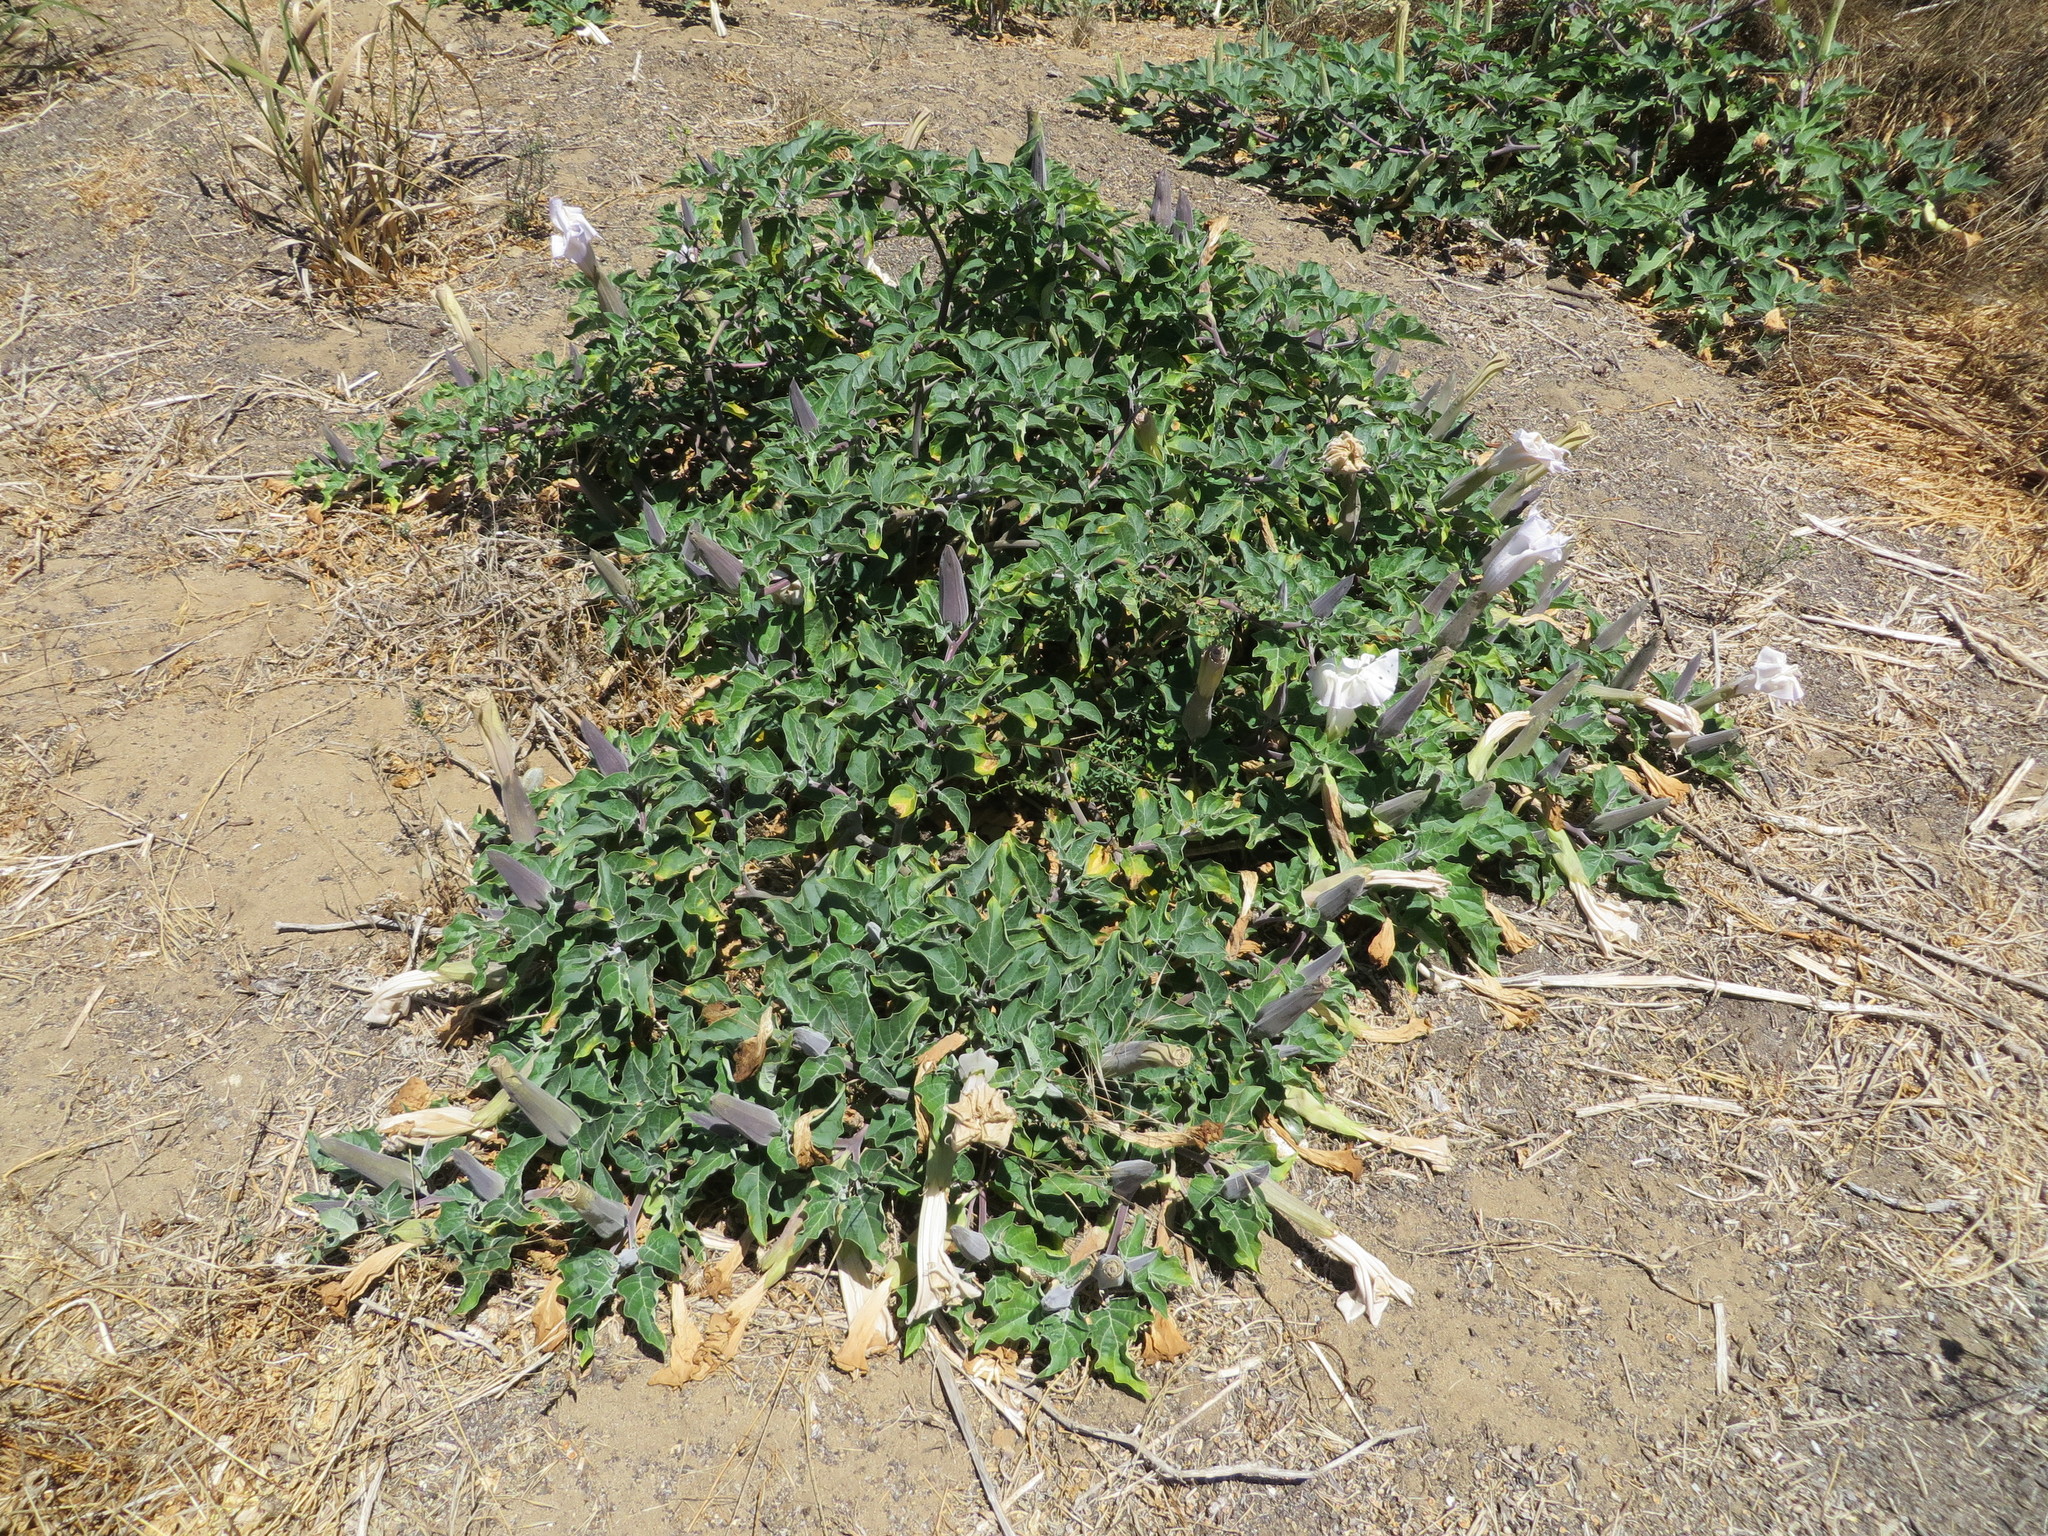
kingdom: Plantae
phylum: Tracheophyta
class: Magnoliopsida
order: Solanales
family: Solanaceae
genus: Datura
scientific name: Datura wrightii
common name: Sacred thorn-apple
